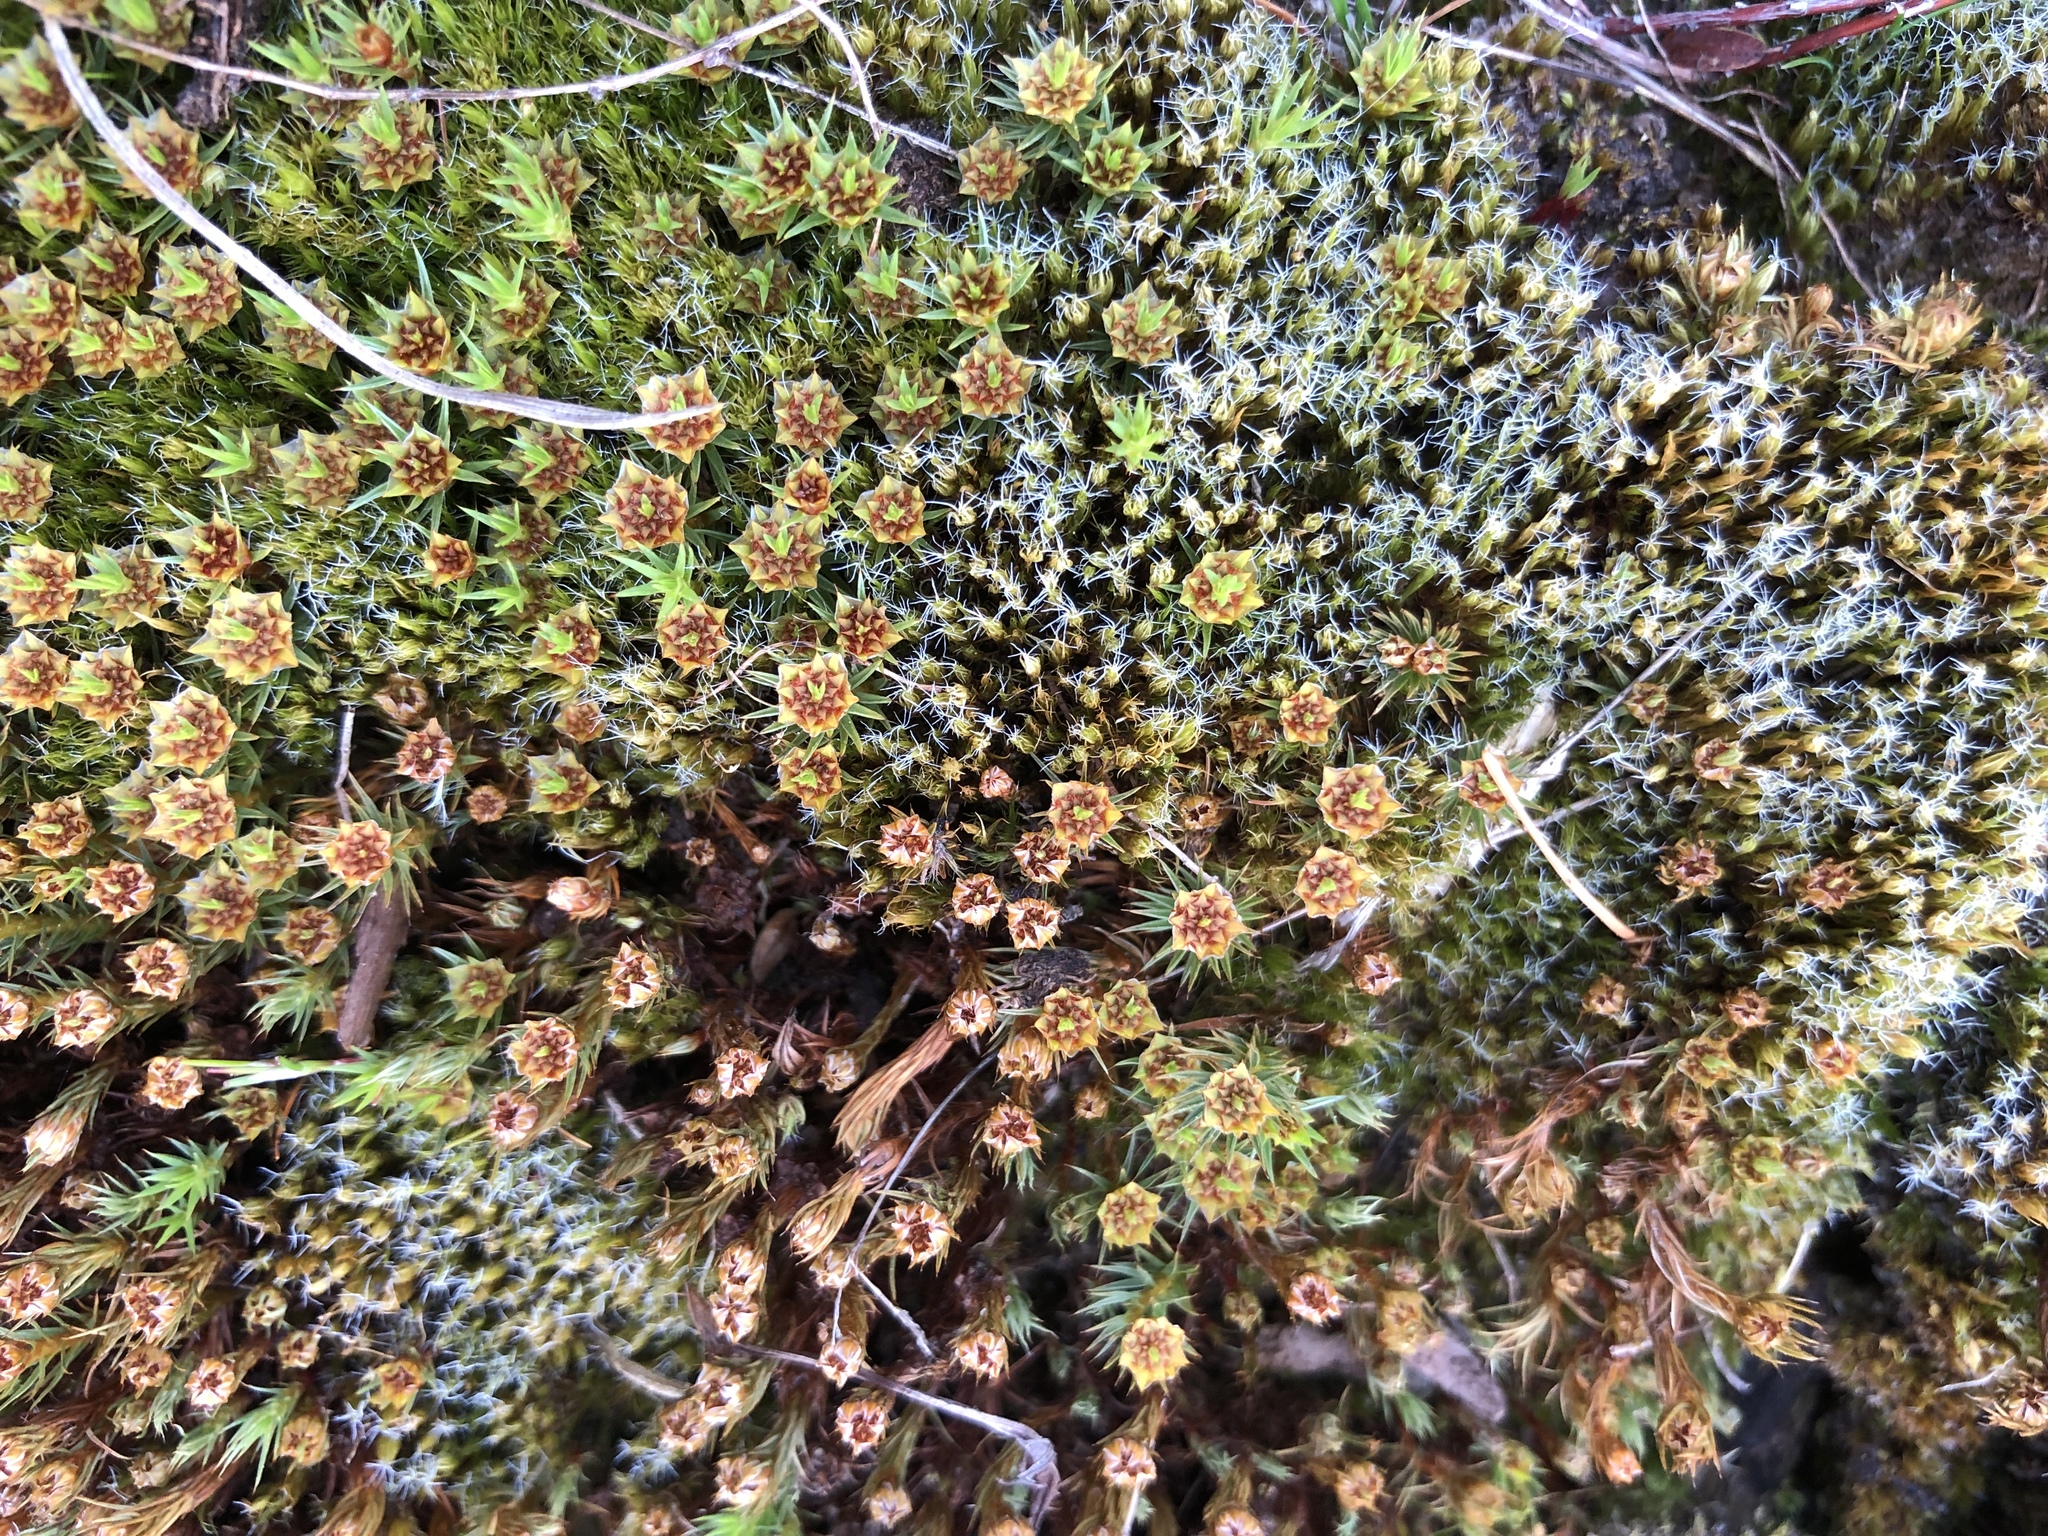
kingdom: Plantae
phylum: Bryophyta
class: Polytrichopsida
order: Polytrichales
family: Polytrichaceae
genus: Polytrichum
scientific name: Polytrichum juniperinum
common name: Juniper haircap moss
